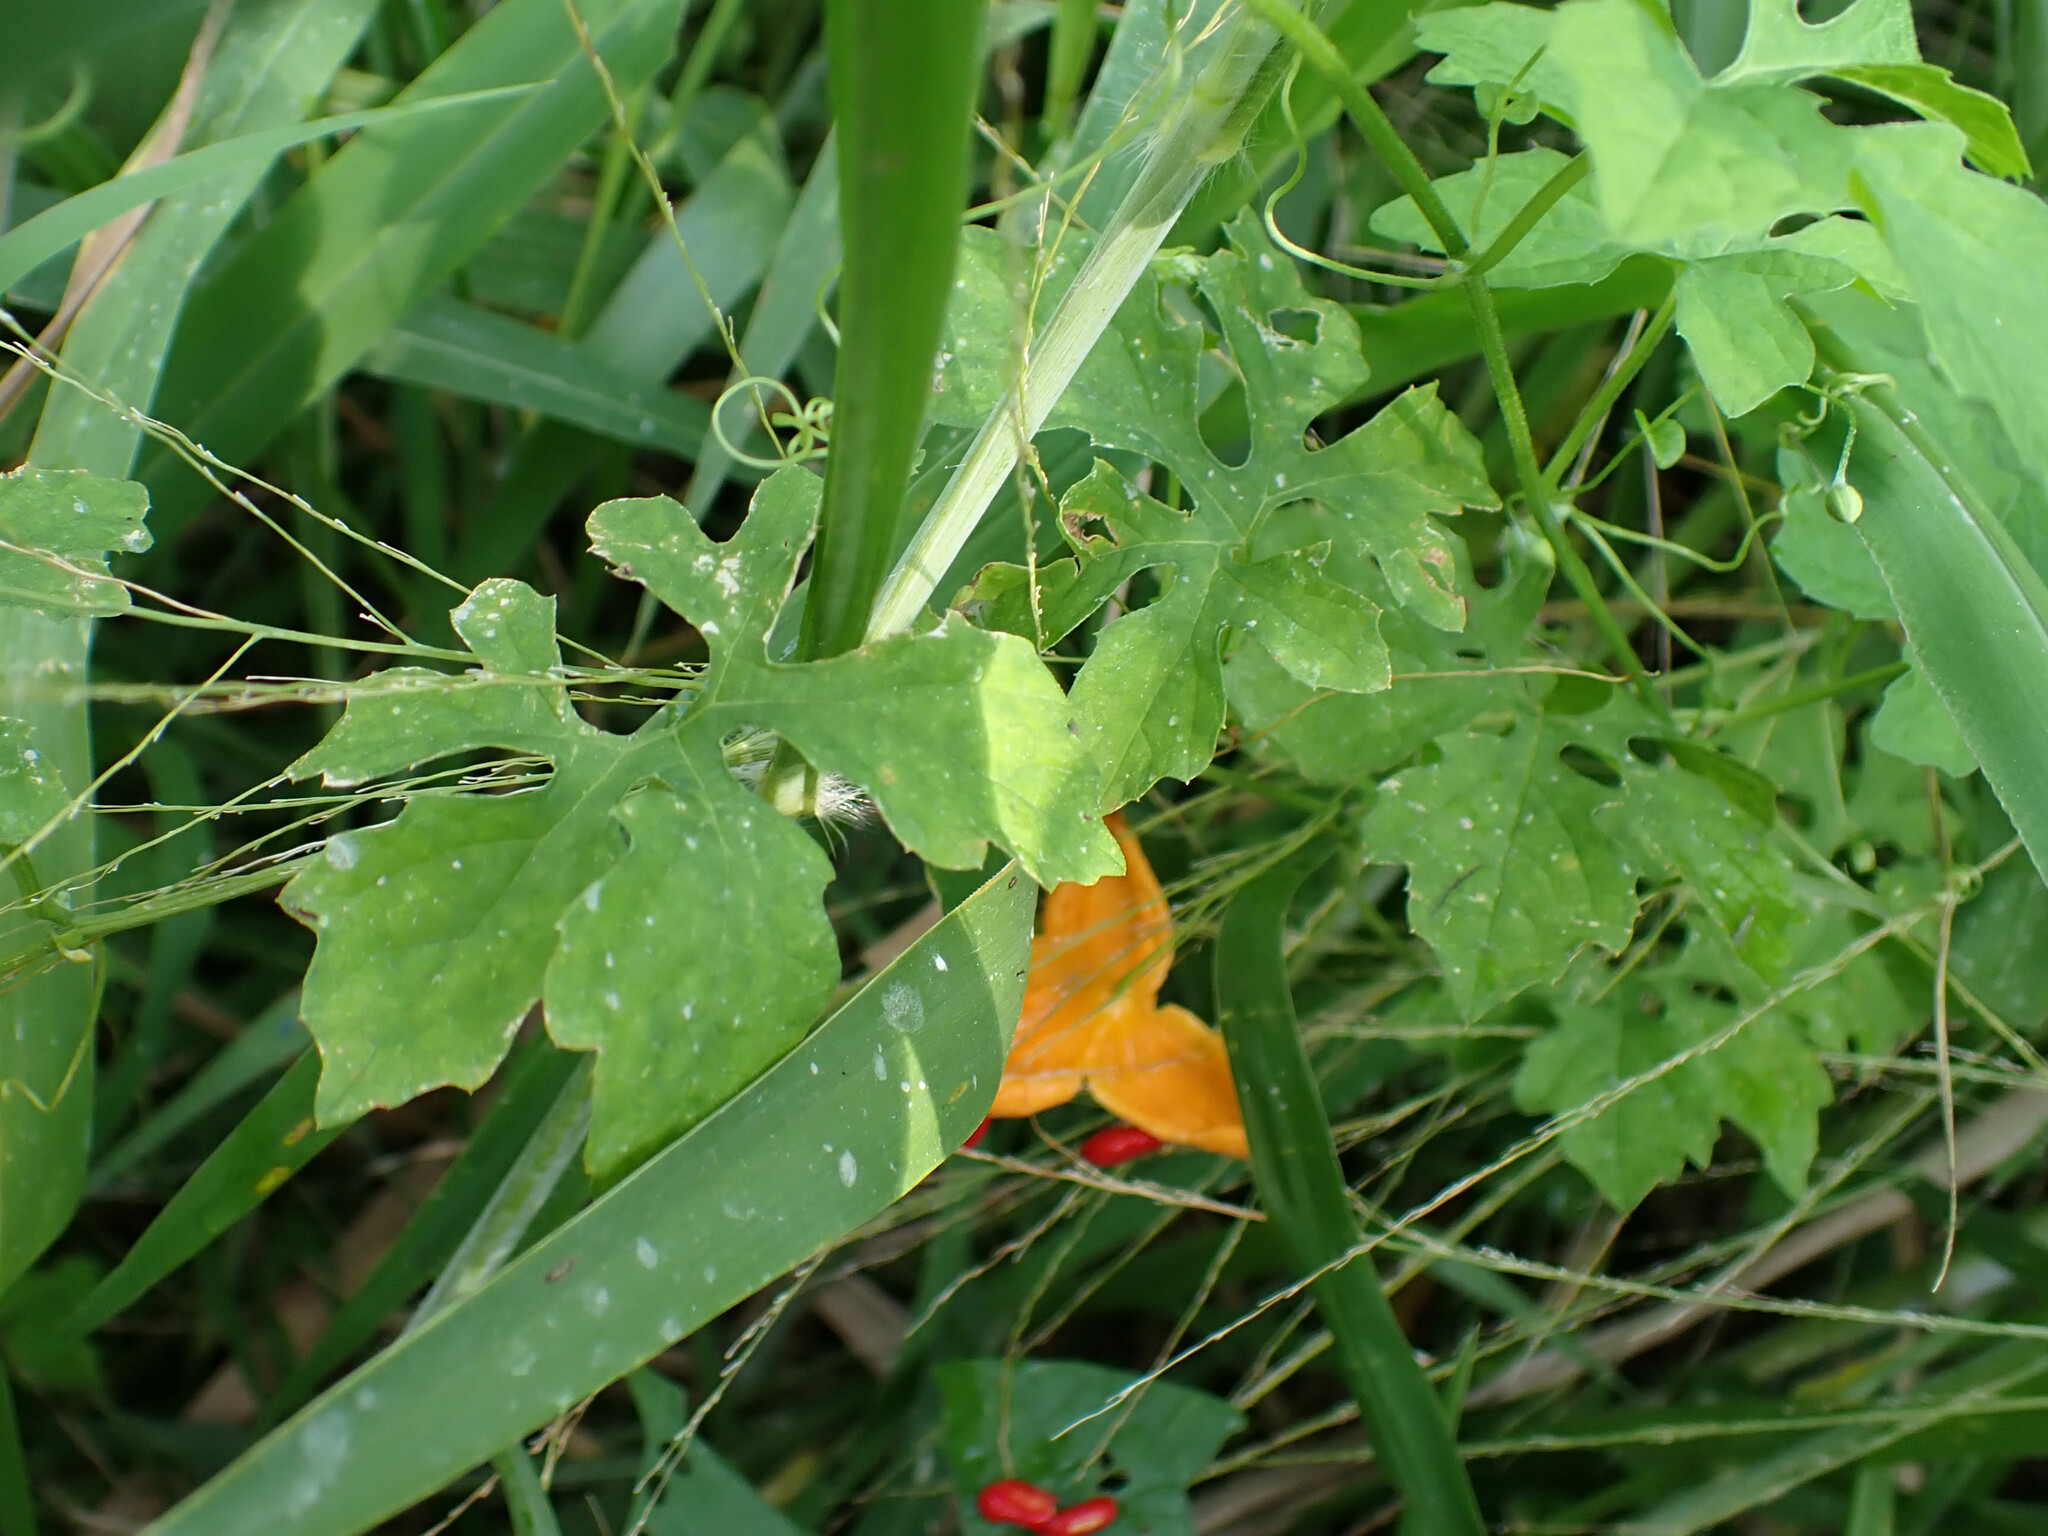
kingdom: Plantae
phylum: Tracheophyta
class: Magnoliopsida
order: Cucurbitales
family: Cucurbitaceae
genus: Momordica
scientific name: Momordica charantia
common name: Balsampear
